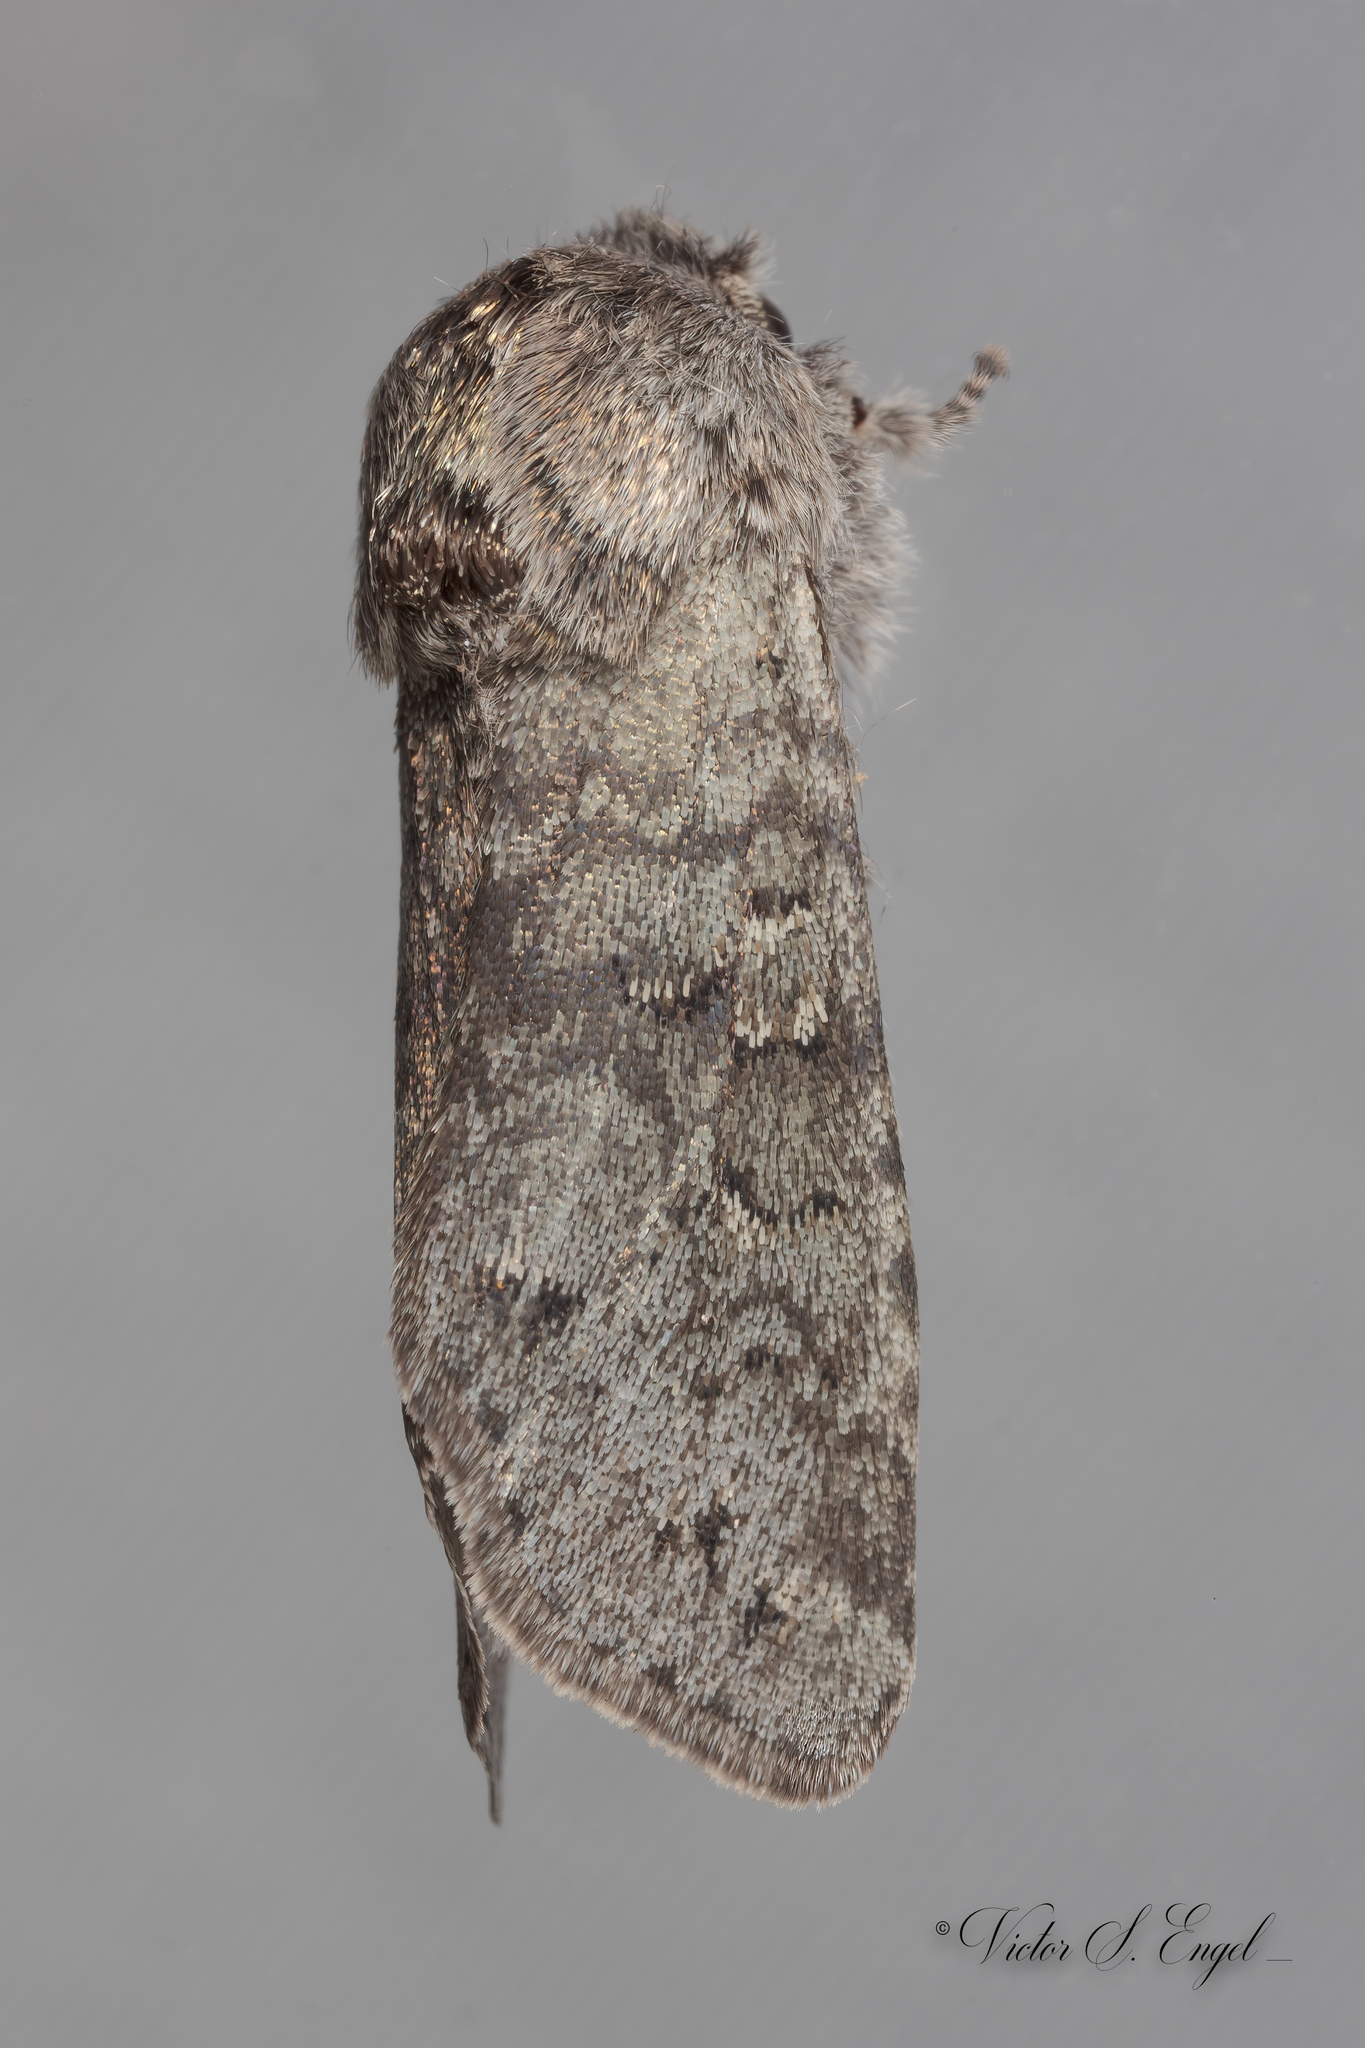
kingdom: Animalia
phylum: Arthropoda
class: Insecta
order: Lepidoptera
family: Noctuidae
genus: Psaphida
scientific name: Psaphida rolandi
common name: Roland's sallow
